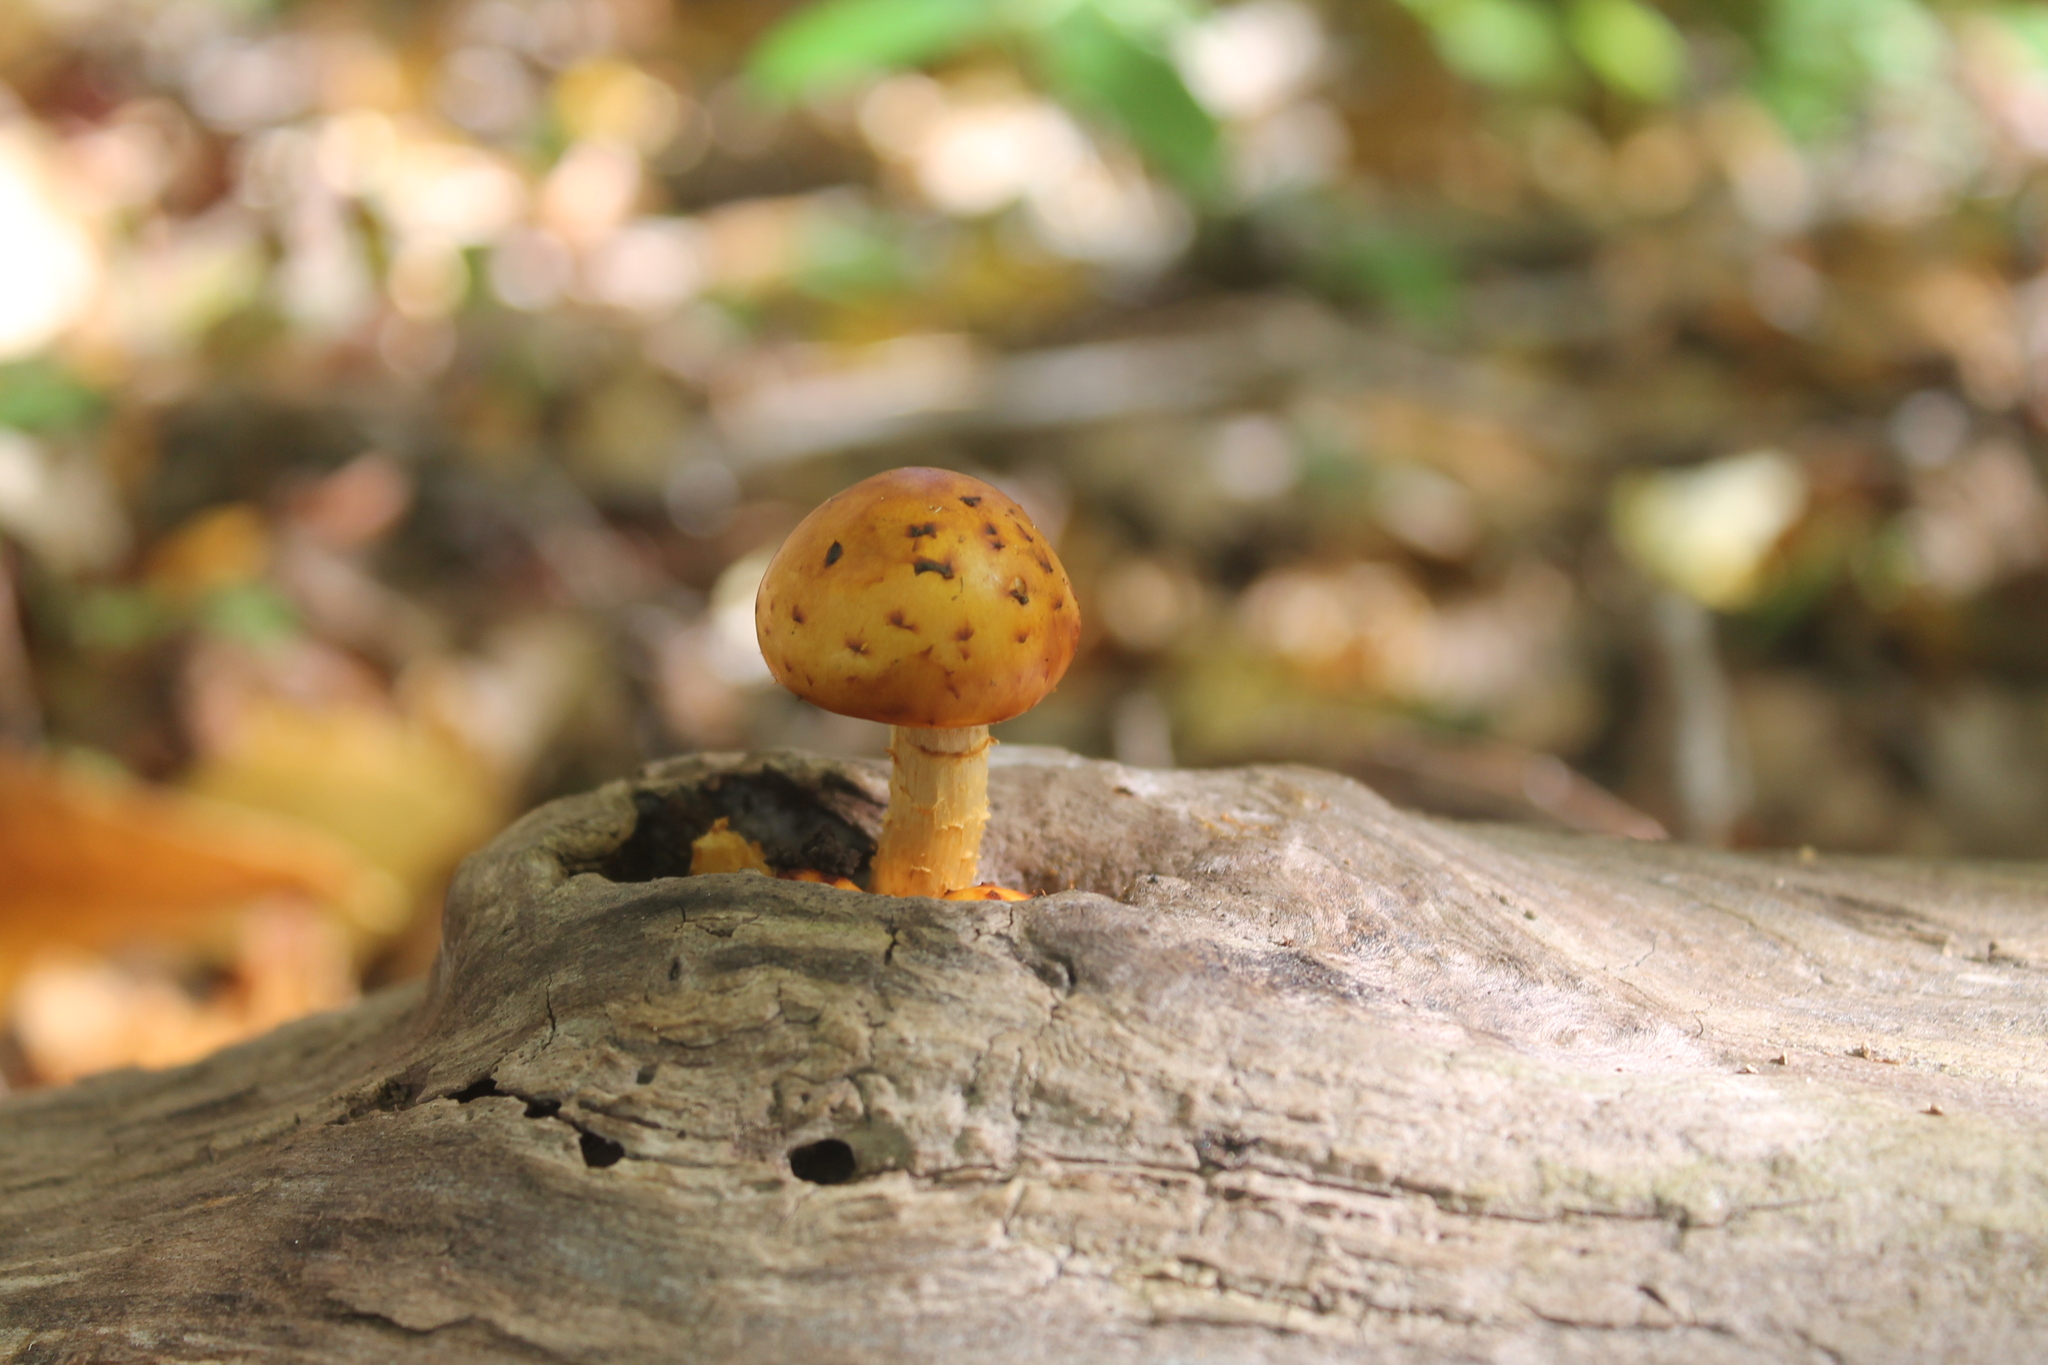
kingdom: Fungi
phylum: Basidiomycota
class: Agaricomycetes
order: Agaricales
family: Strophariaceae
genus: Pholiota
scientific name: Pholiota aurivella
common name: Golden scalycap
